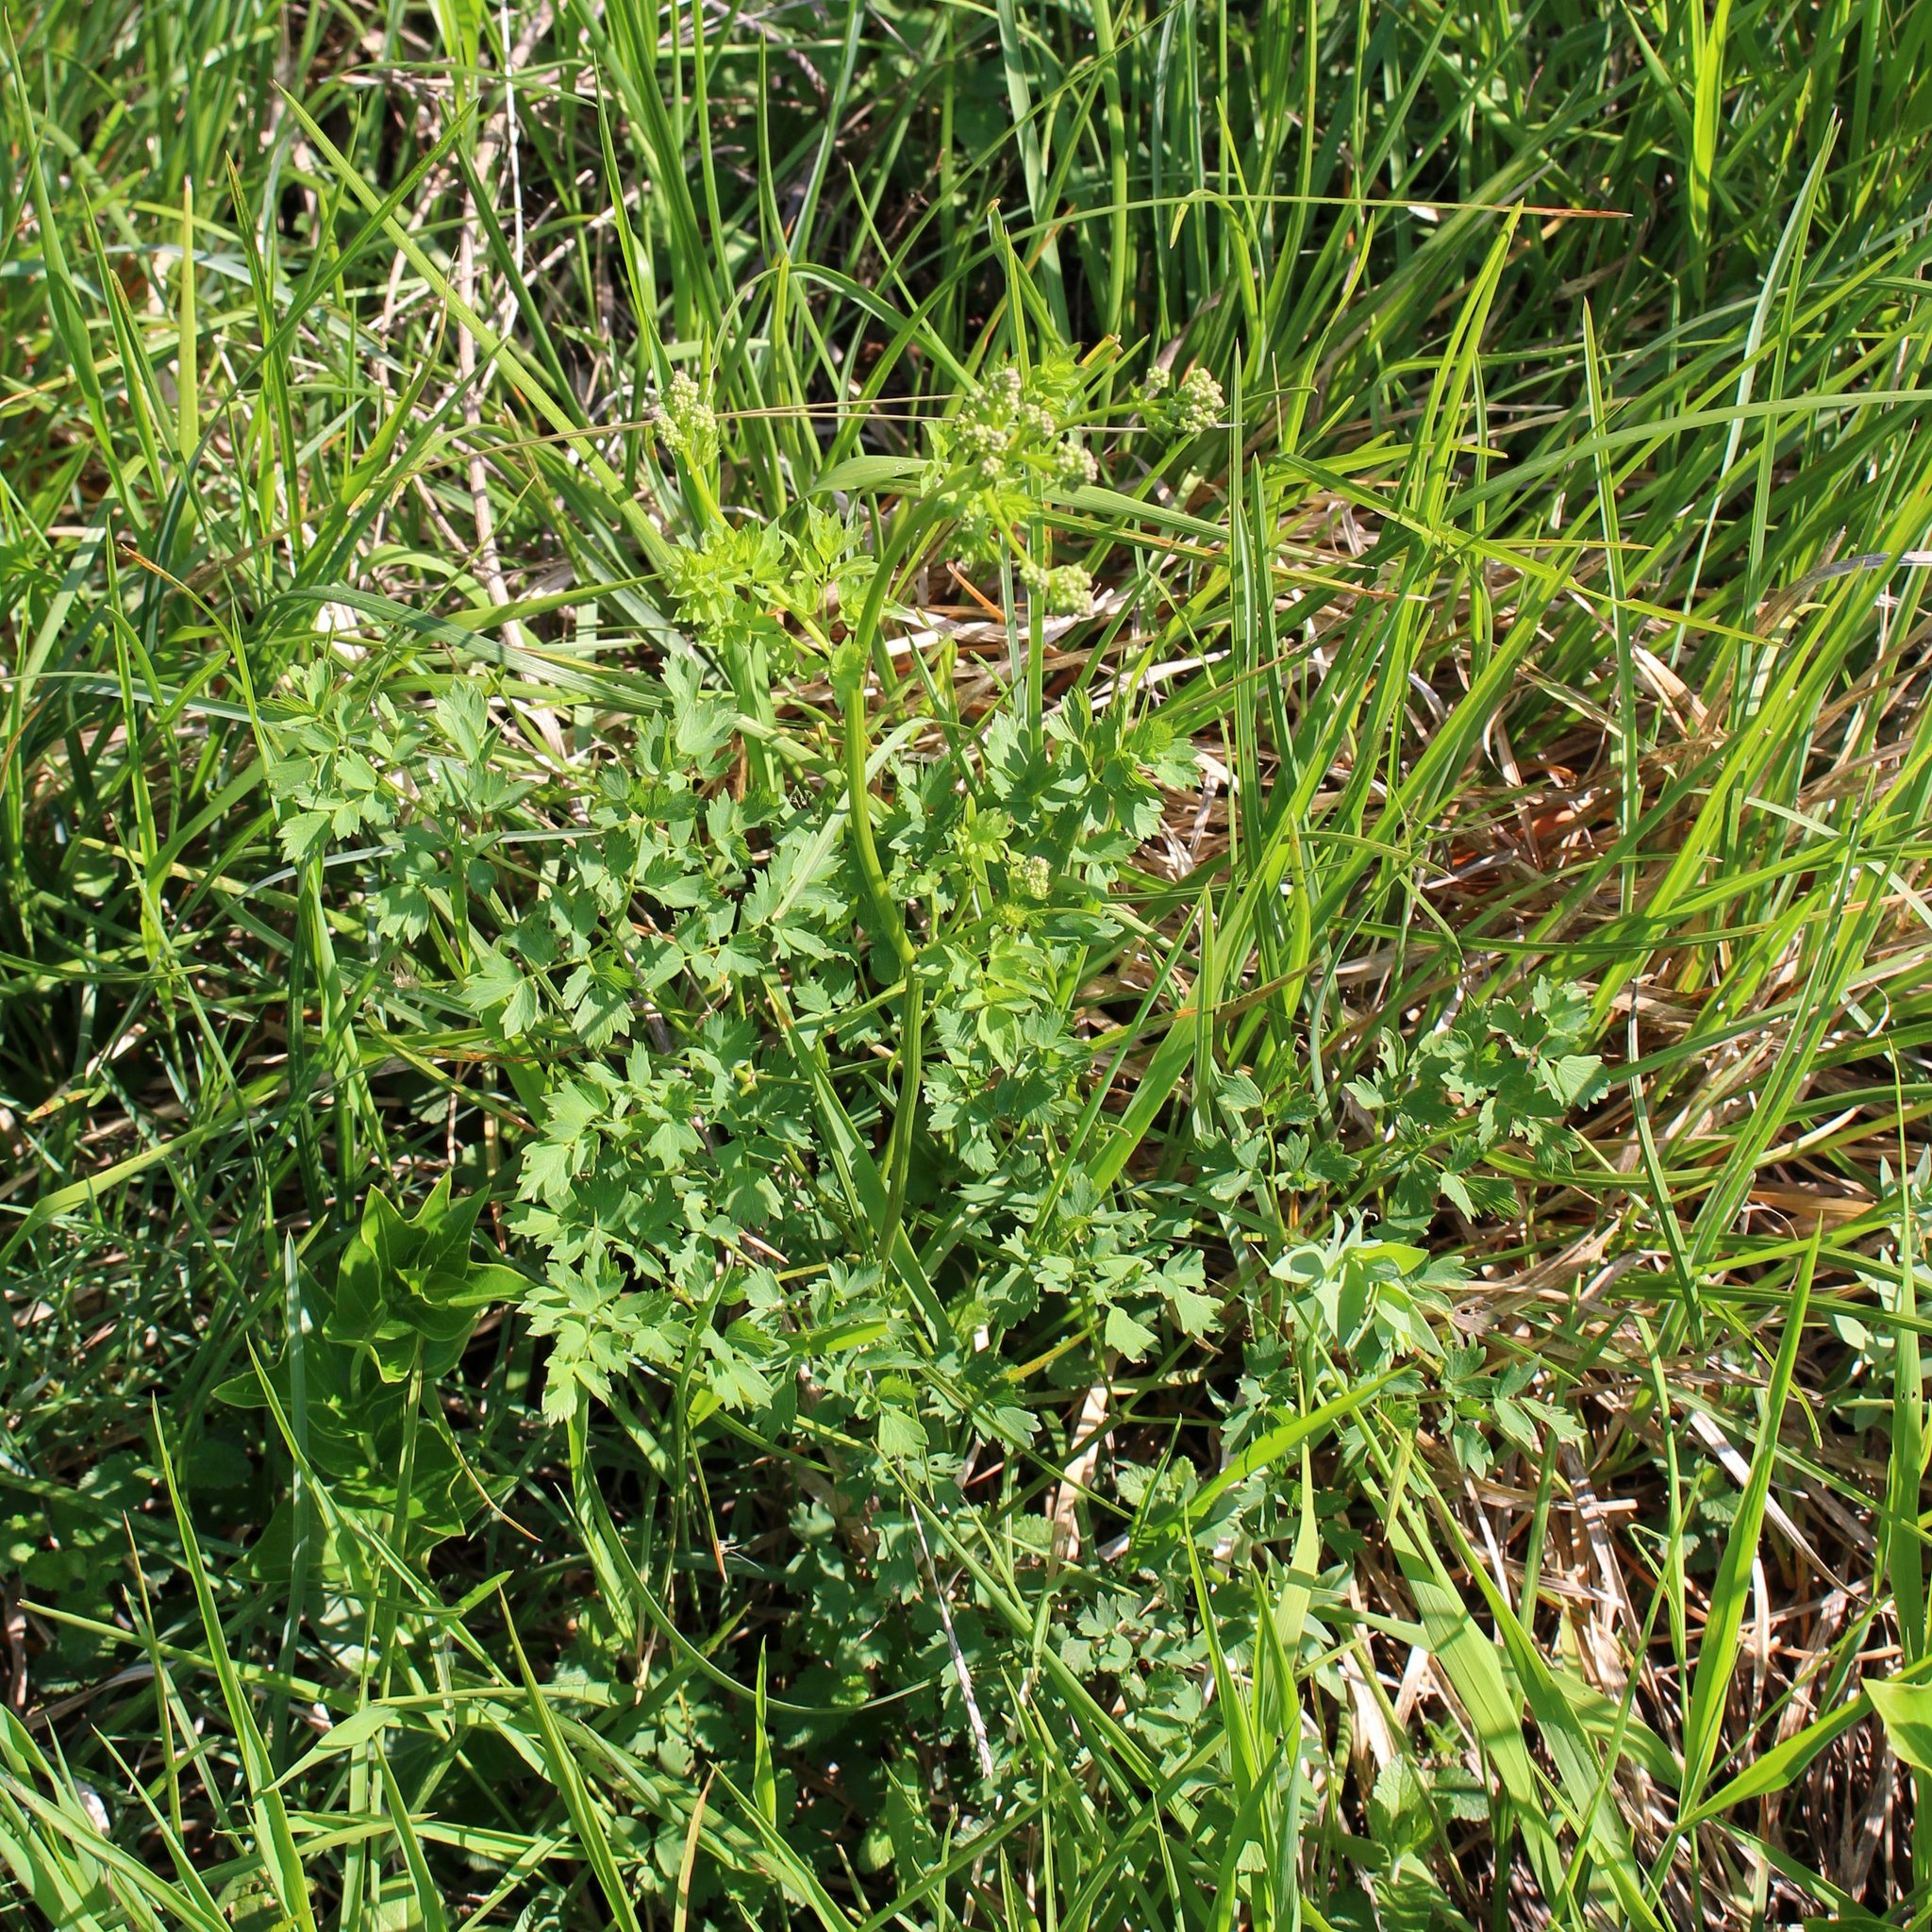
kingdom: Plantae
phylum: Tracheophyta
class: Magnoliopsida
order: Ranunculales
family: Ranunculaceae
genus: Thalictrum
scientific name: Thalictrum minus
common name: Lesser meadow-rue
